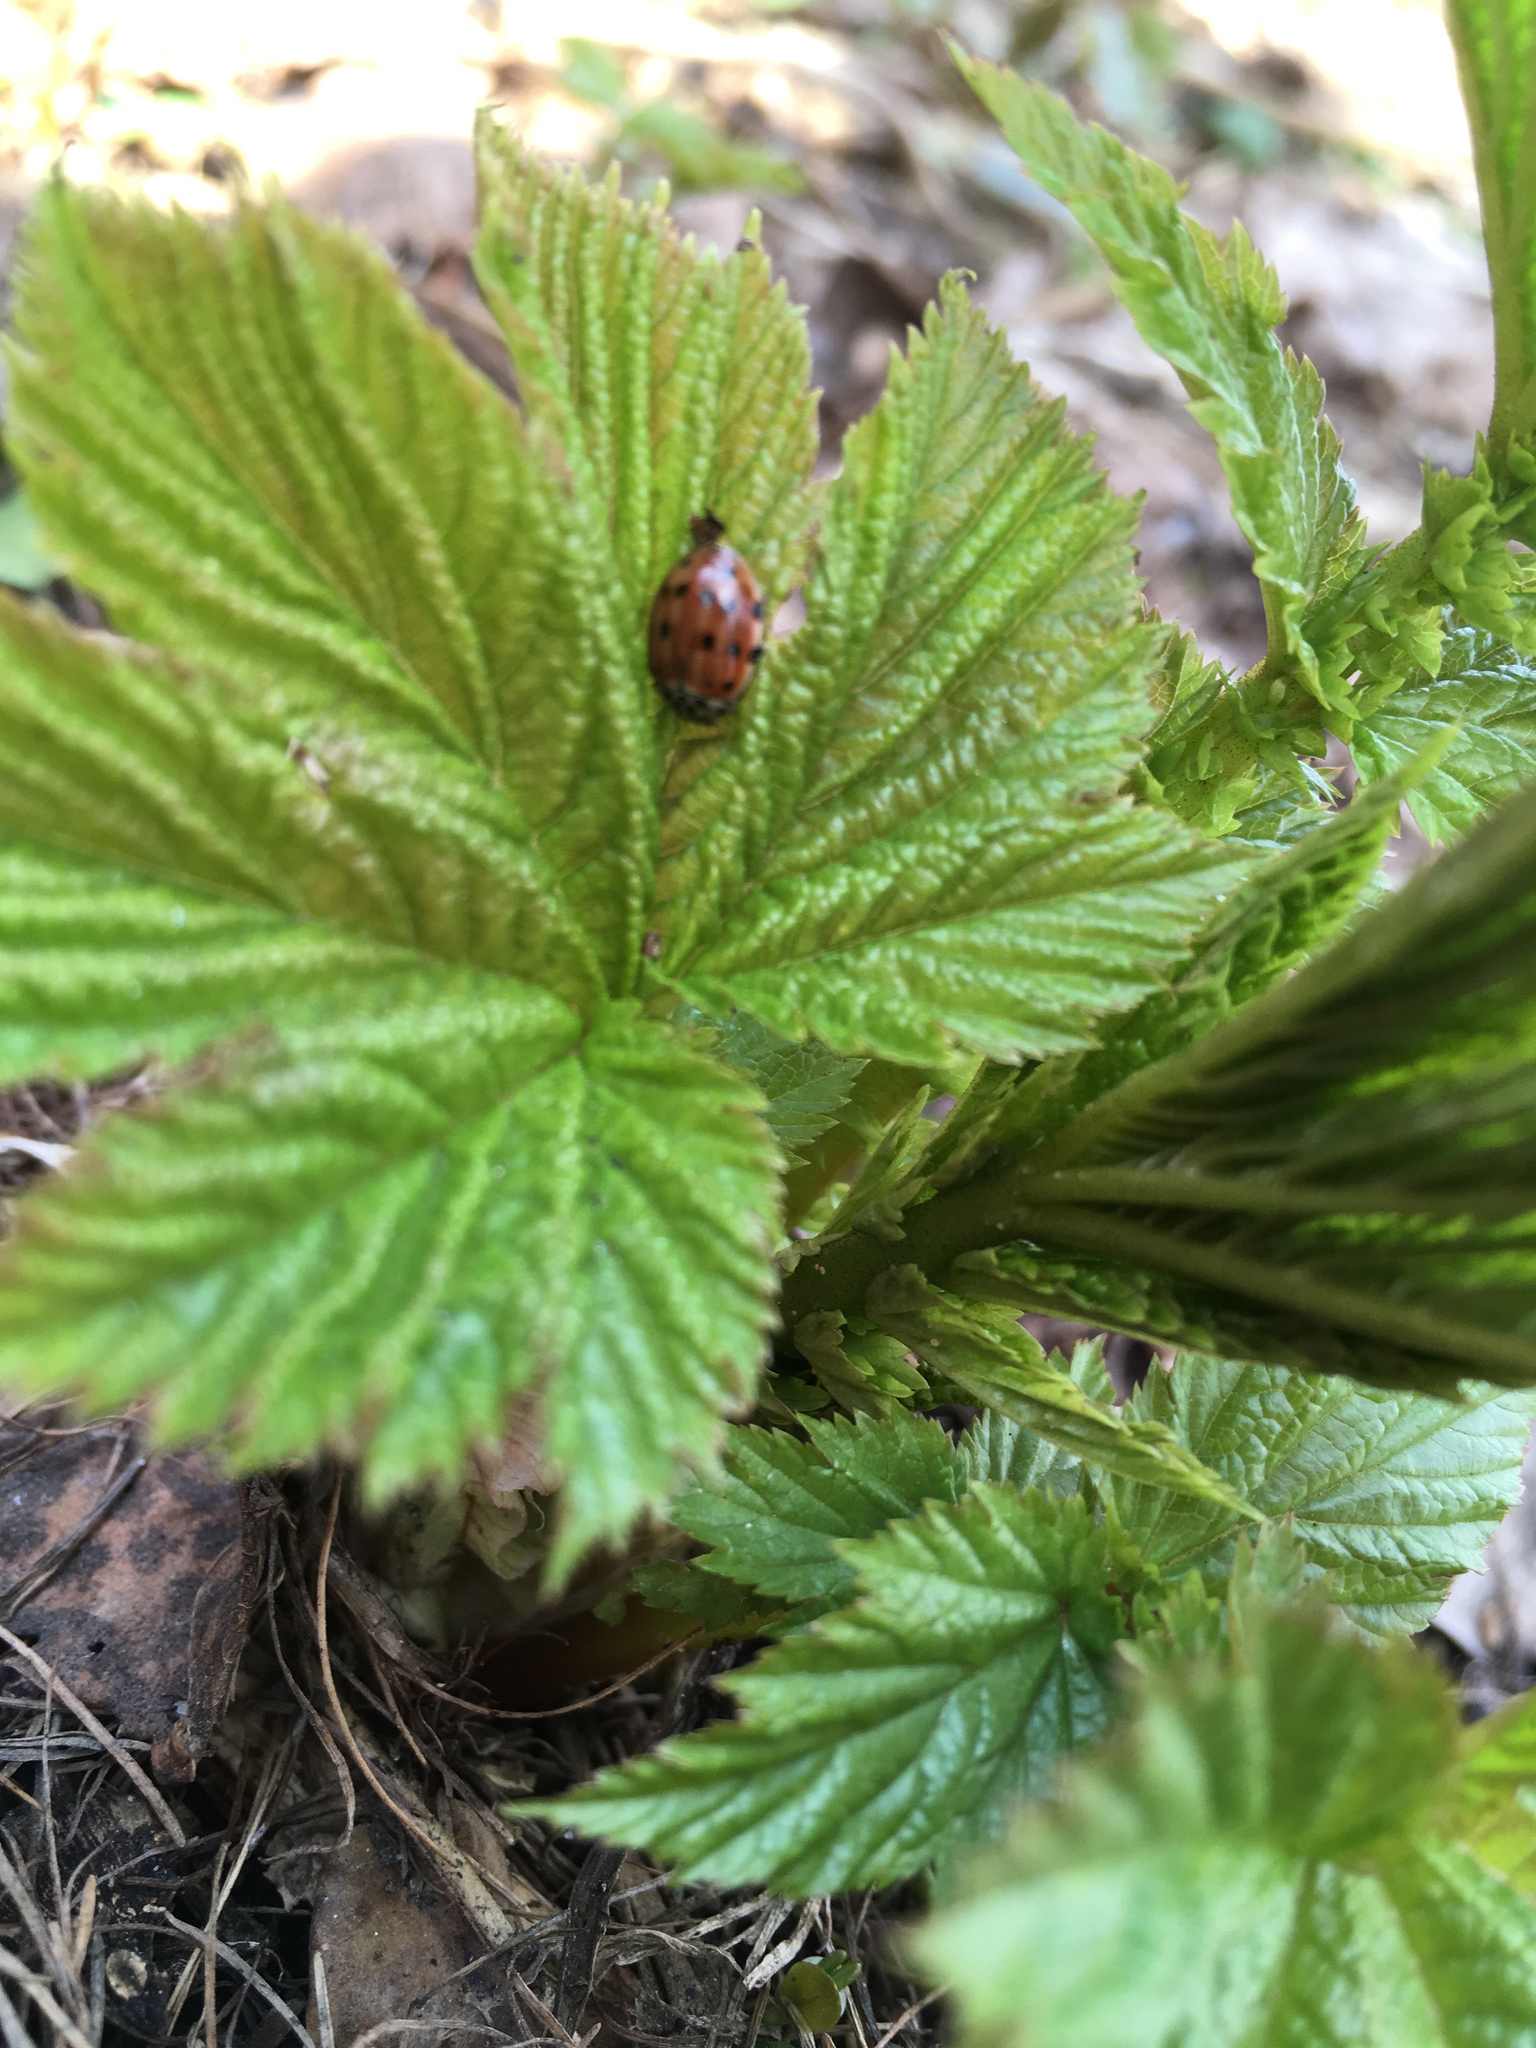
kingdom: Animalia
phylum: Arthropoda
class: Insecta
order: Coleoptera
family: Coccinellidae
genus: Harmonia
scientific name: Harmonia quadripunctata
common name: Cream-streaked ladybird
